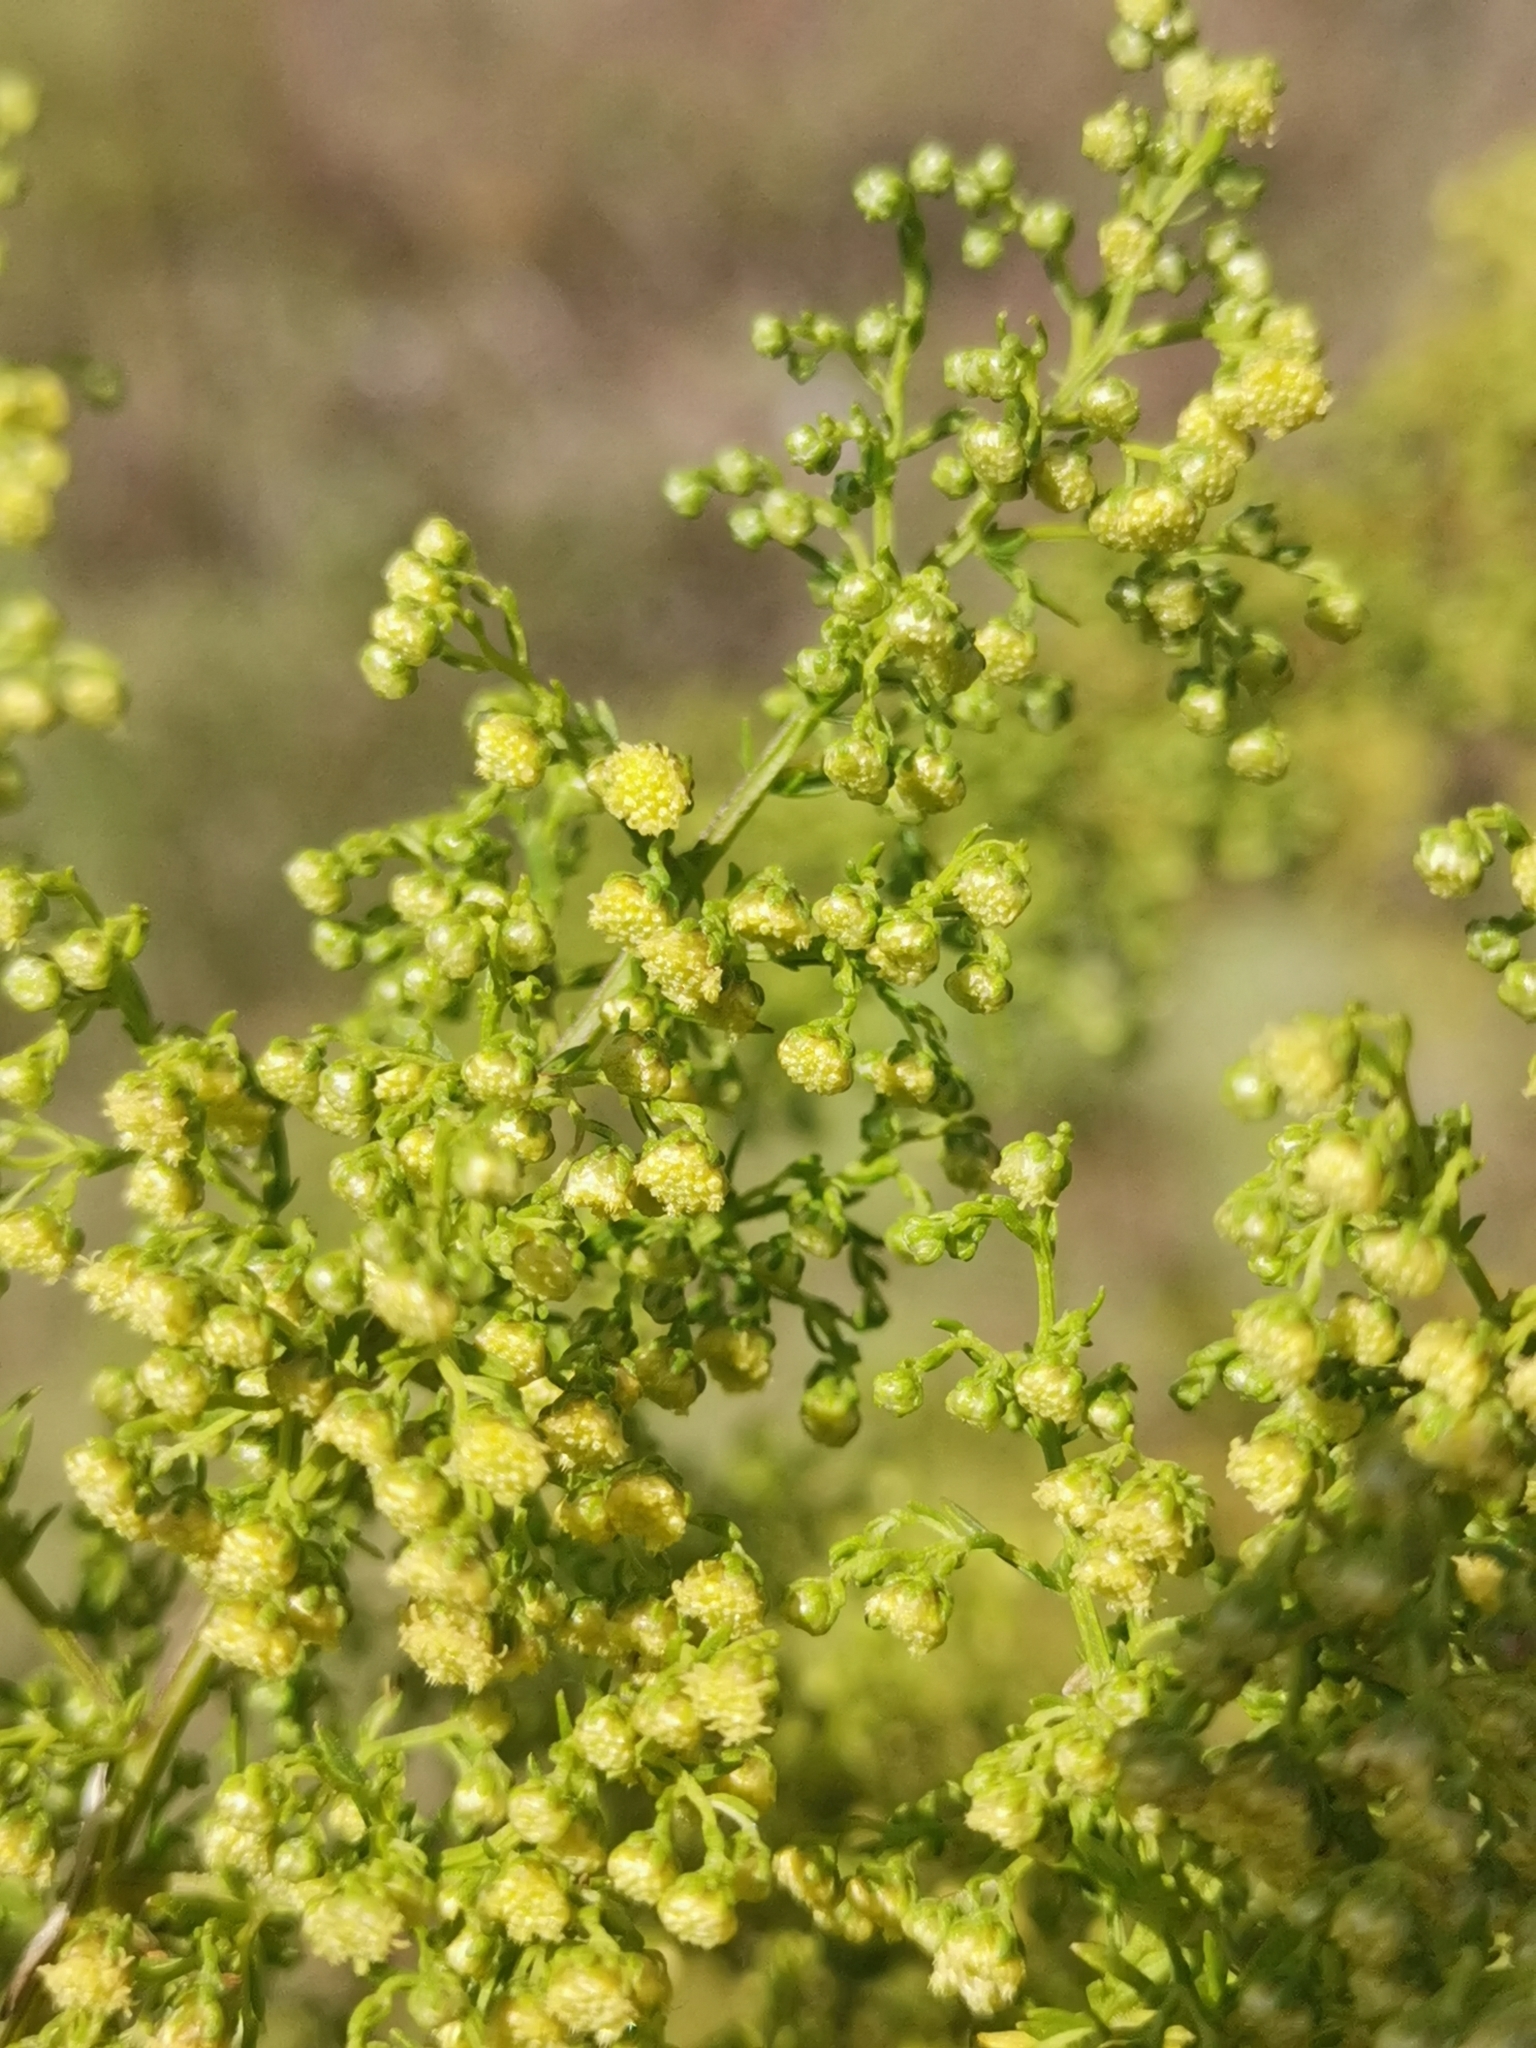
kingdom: Plantae
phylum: Tracheophyta
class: Magnoliopsida
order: Asterales
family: Asteraceae
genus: Artemisia
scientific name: Artemisia annua
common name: Sweet sagewort
